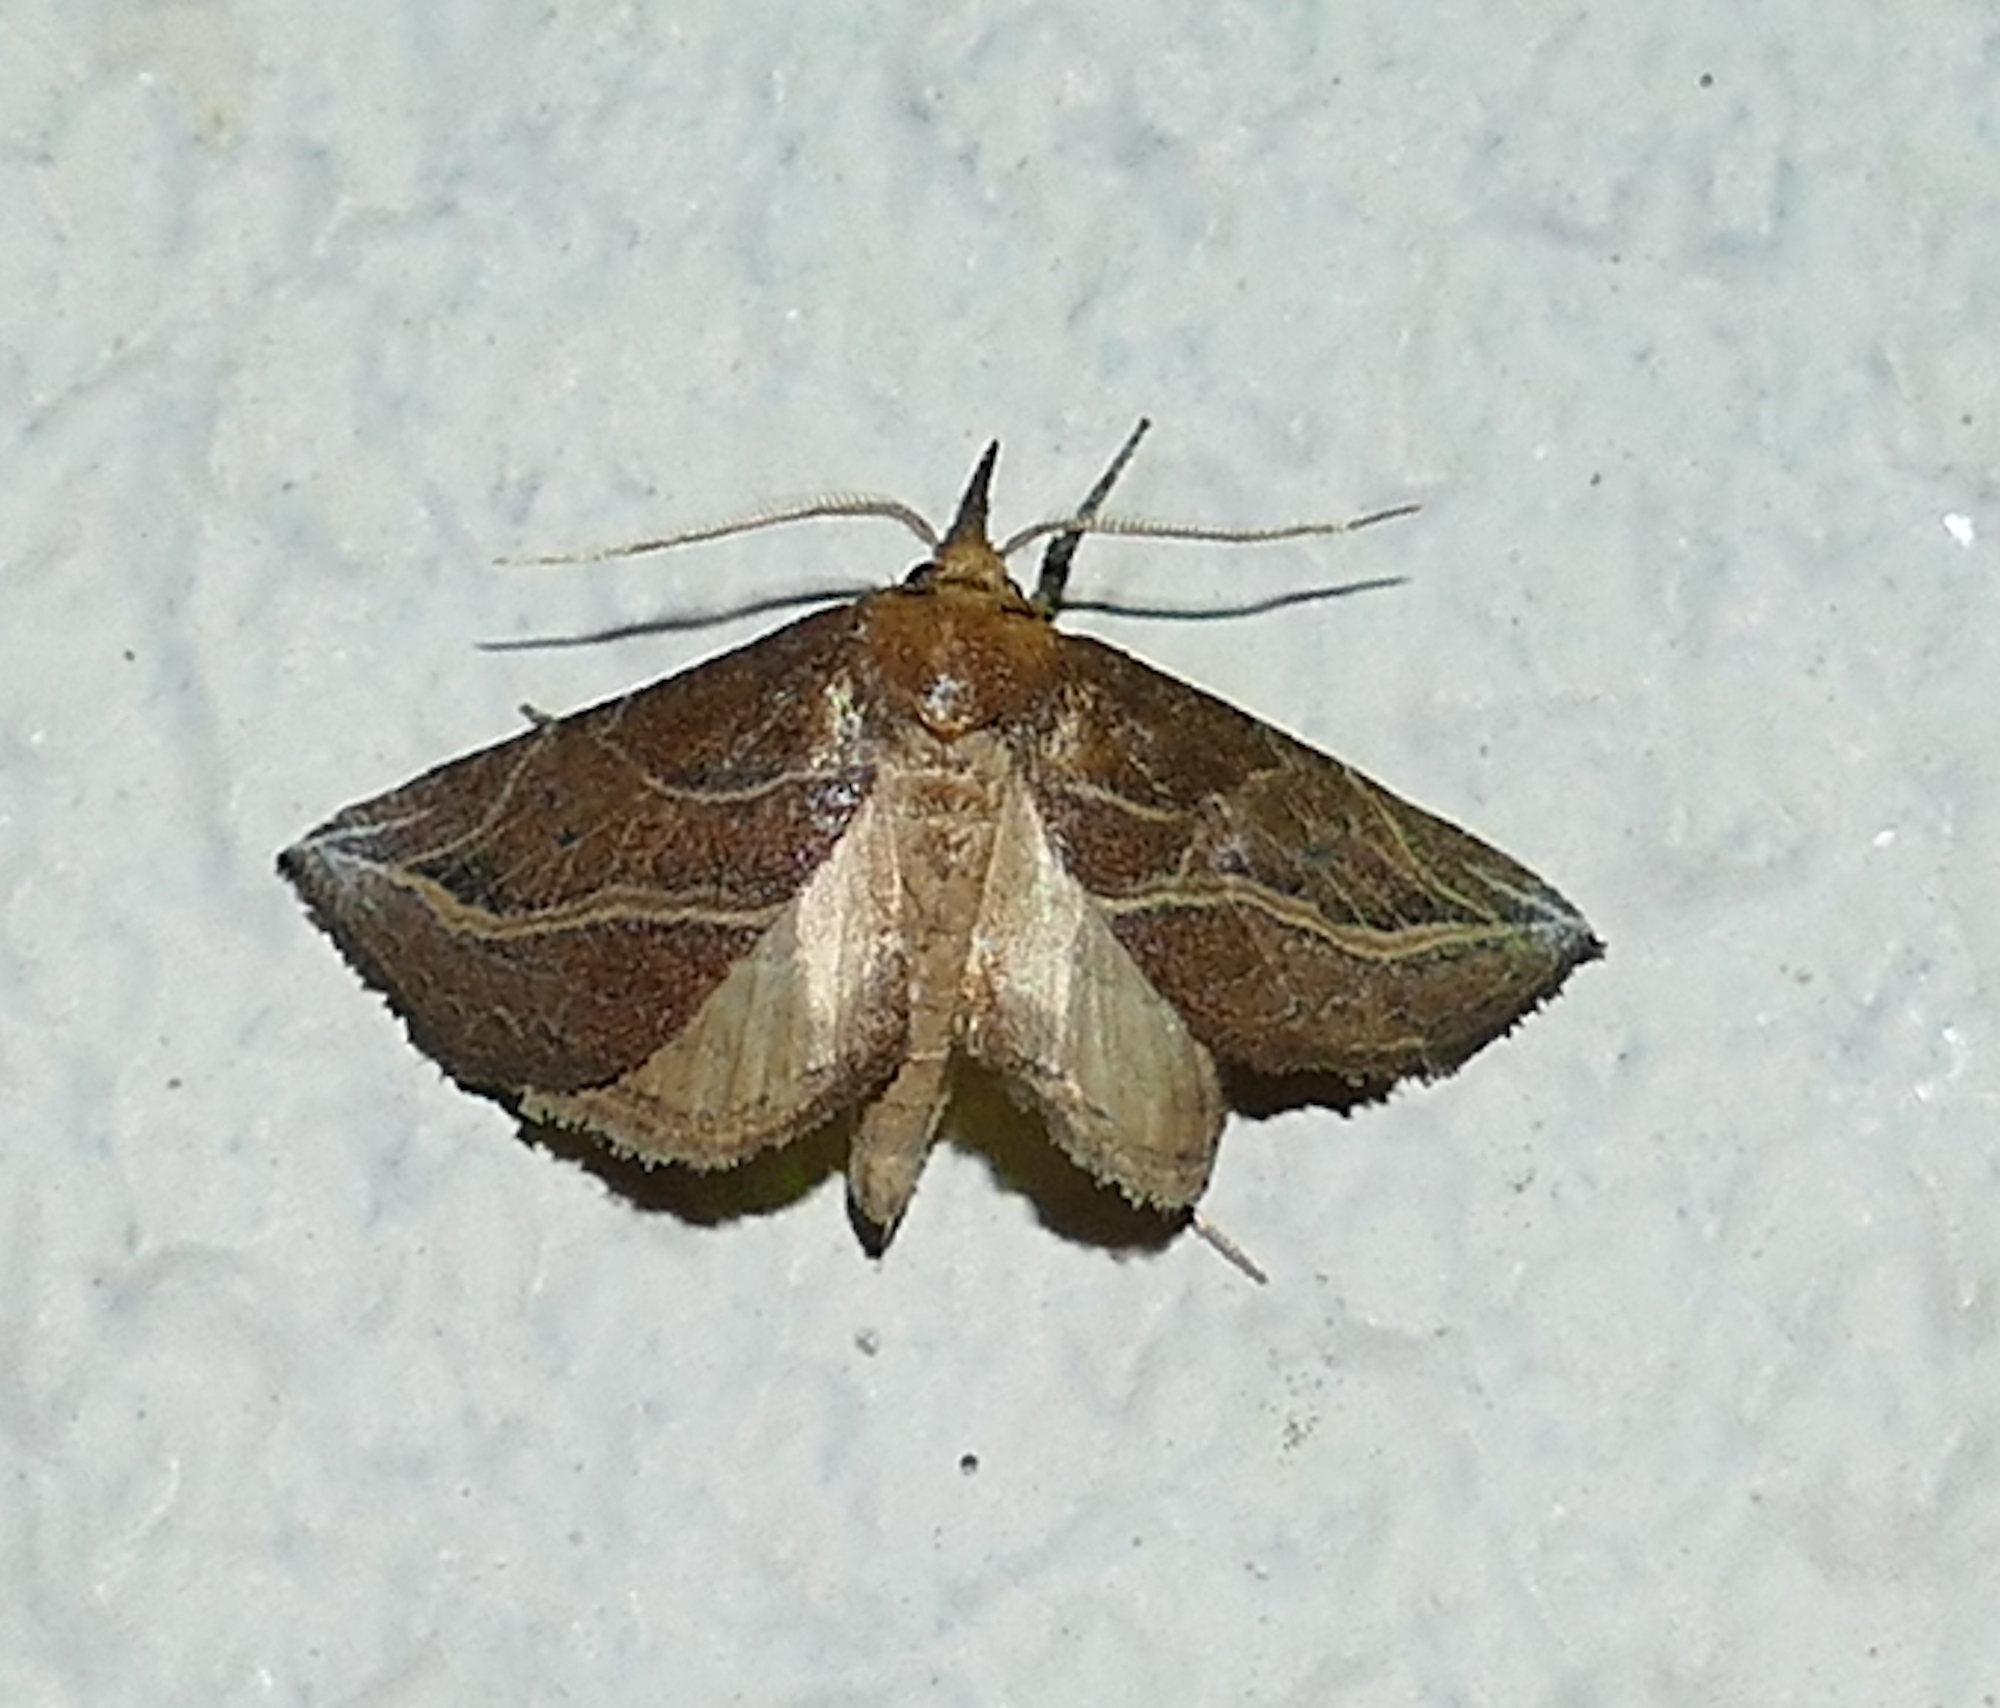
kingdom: Animalia
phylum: Arthropoda
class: Insecta
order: Lepidoptera
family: Erebidae
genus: Phyprosopus
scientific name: Phyprosopus callitrichoides
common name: Curved-lined owlet
